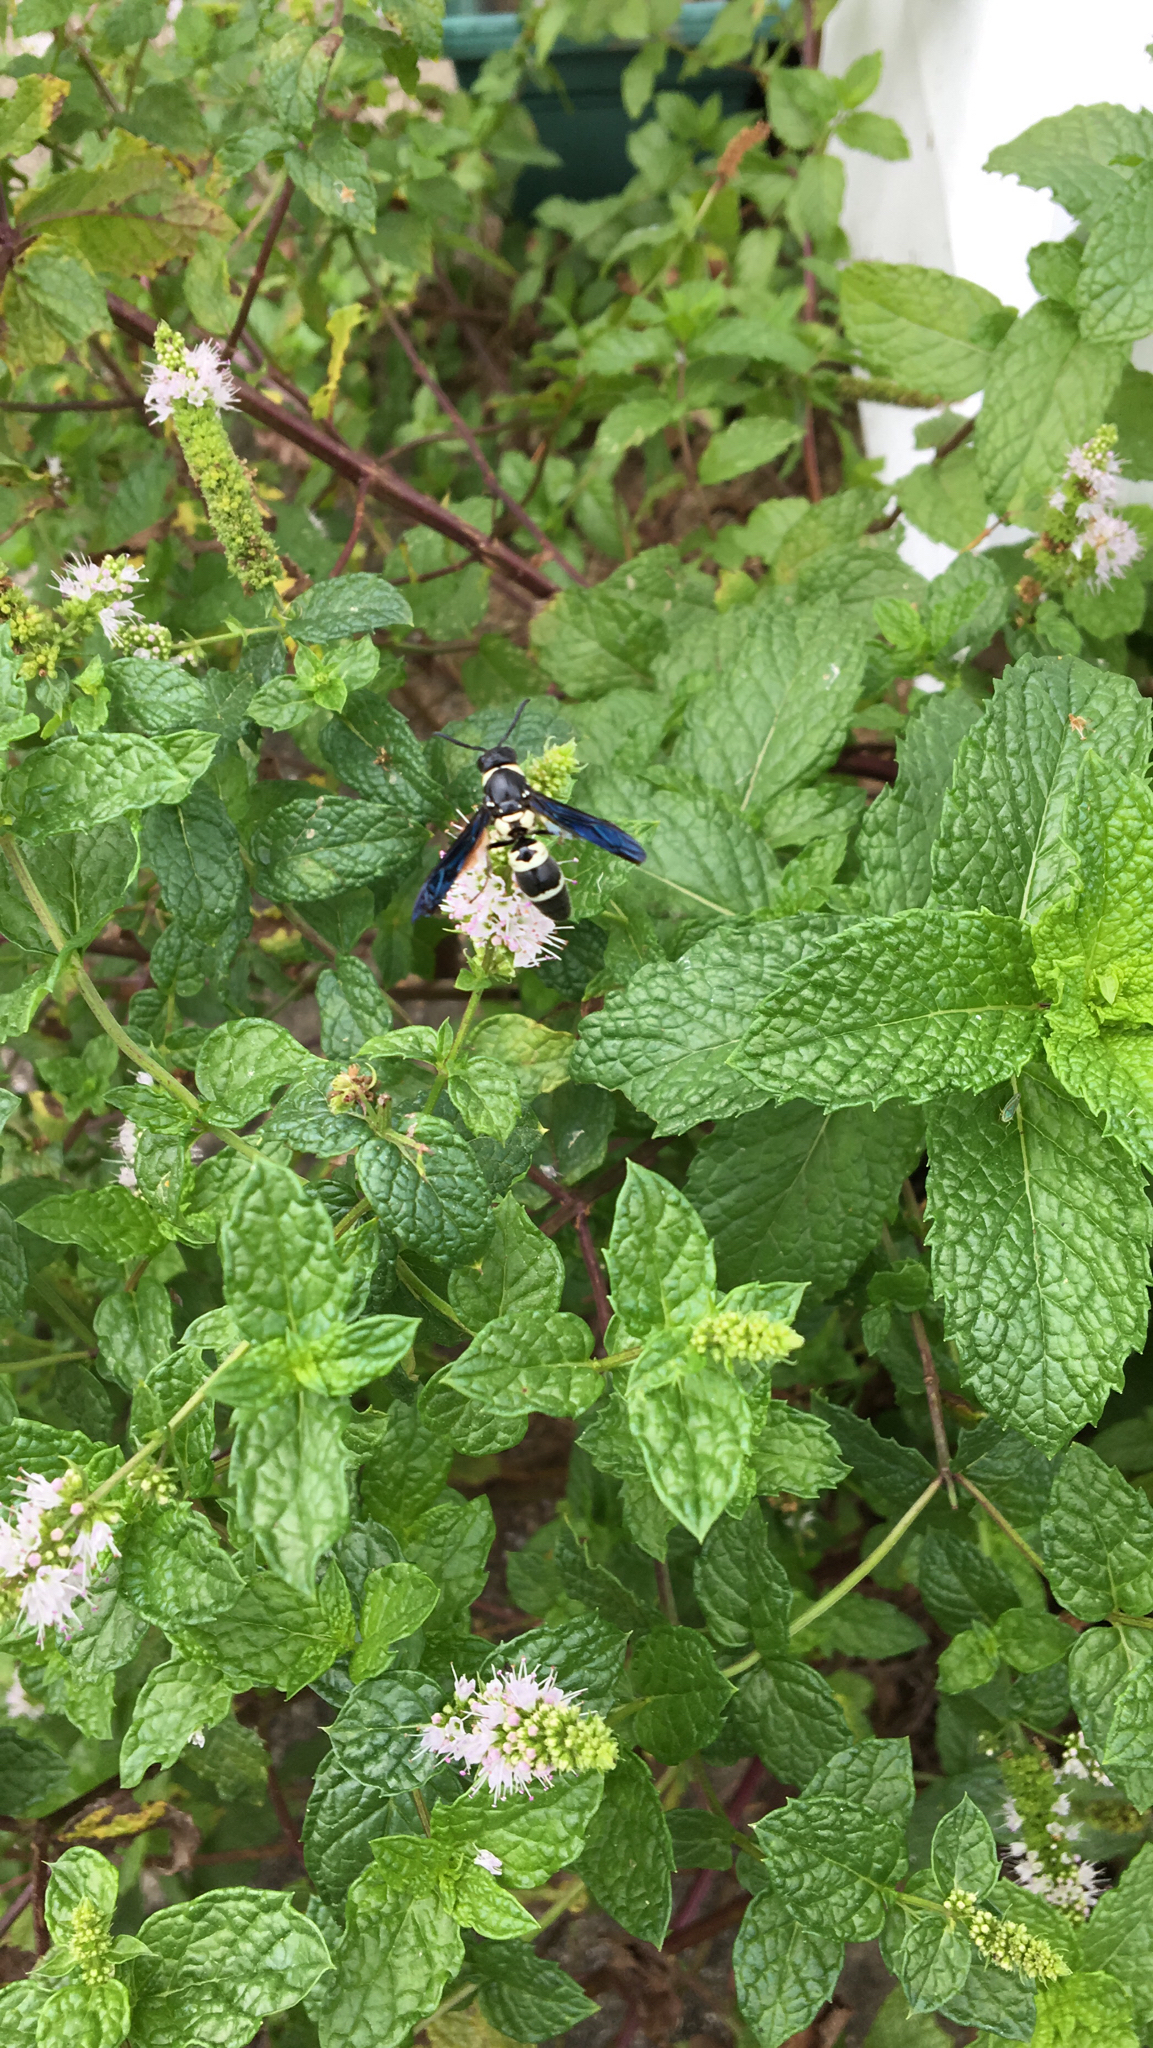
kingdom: Animalia
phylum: Arthropoda
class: Insecta
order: Hymenoptera
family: Eumenidae
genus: Pseudodynerus
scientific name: Pseudodynerus quadrisectus
